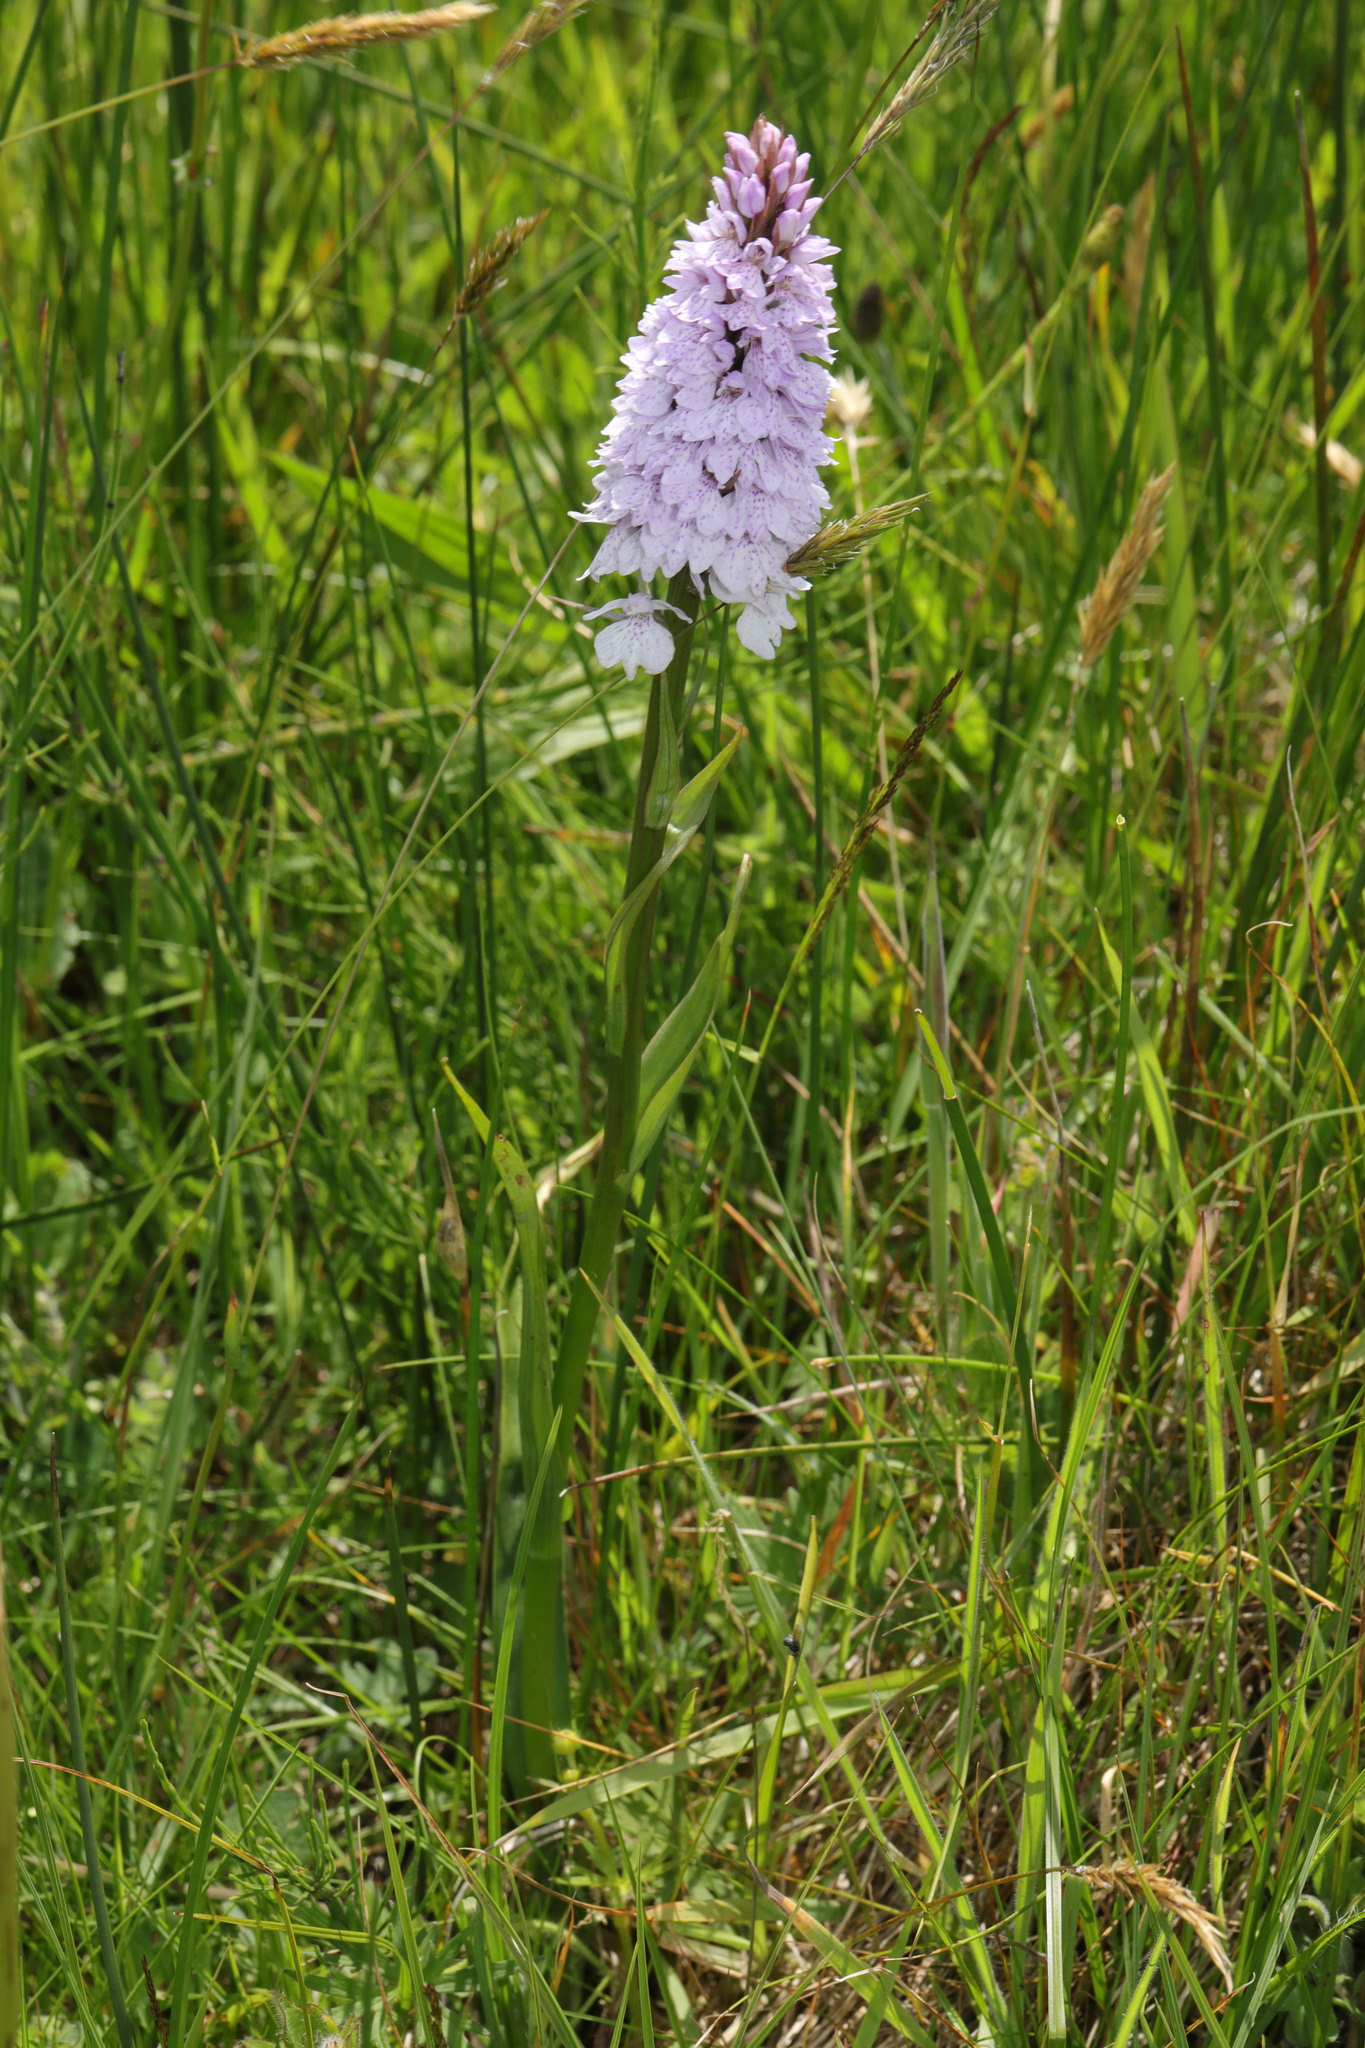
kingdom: Plantae
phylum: Tracheophyta
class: Liliopsida
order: Asparagales
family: Orchidaceae
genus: Dactylorhiza
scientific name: Dactylorhiza majalis
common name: Marsh orchid
